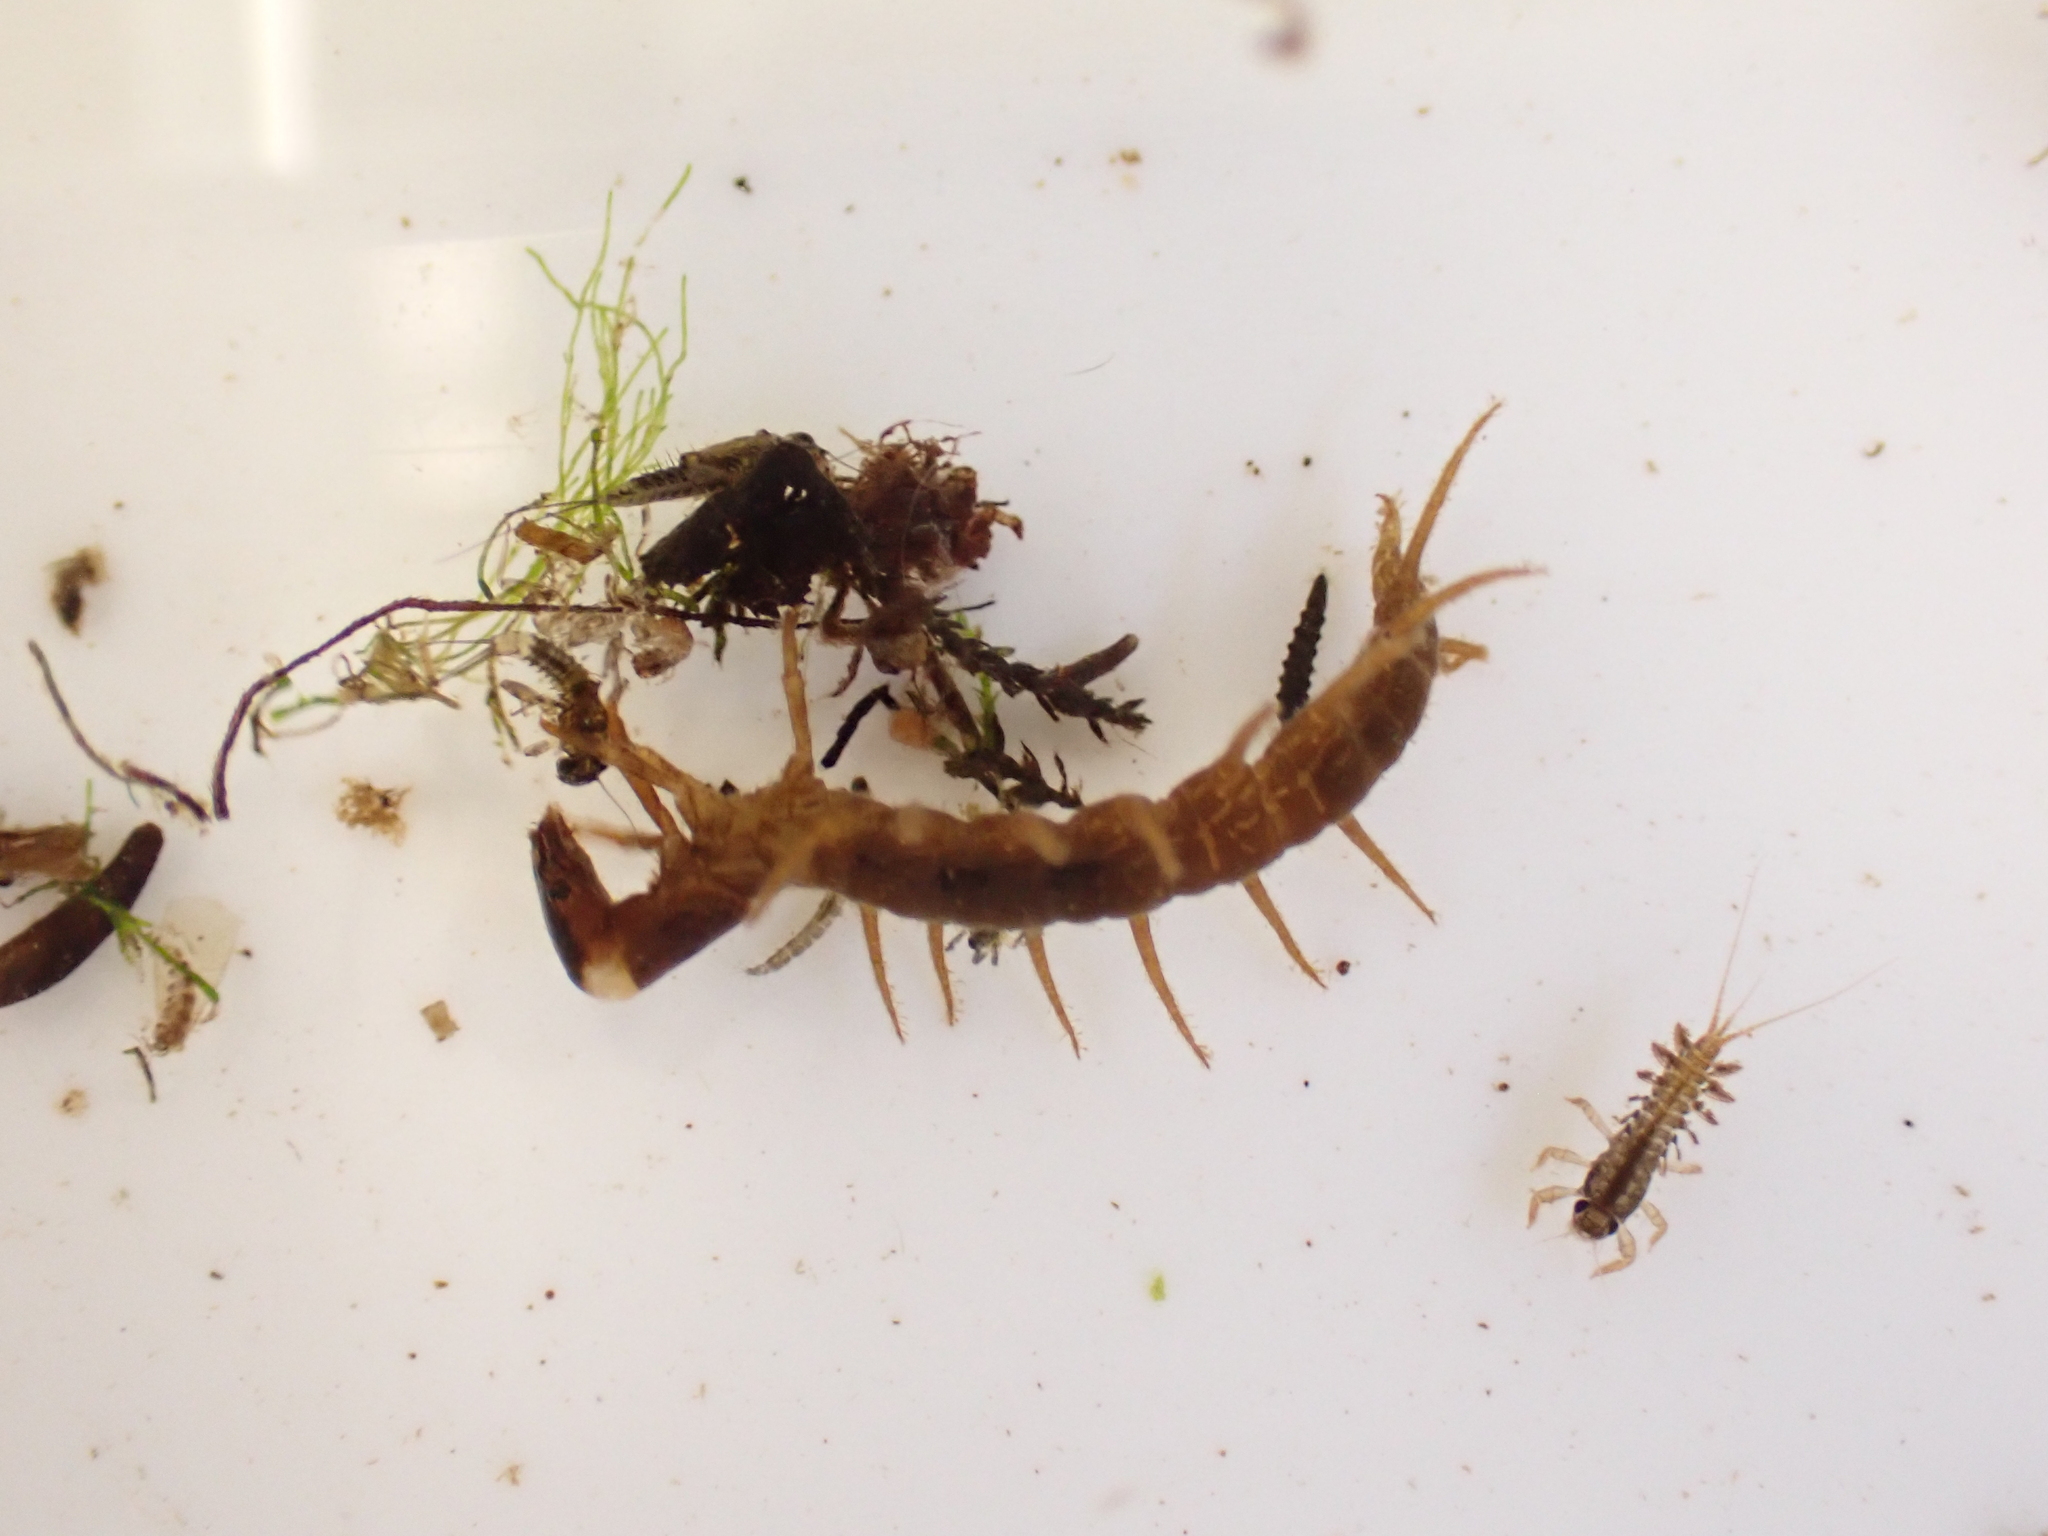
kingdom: Animalia
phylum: Arthropoda
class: Insecta
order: Megaloptera
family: Corydalidae
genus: Archichauliodes
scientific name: Archichauliodes diversus
